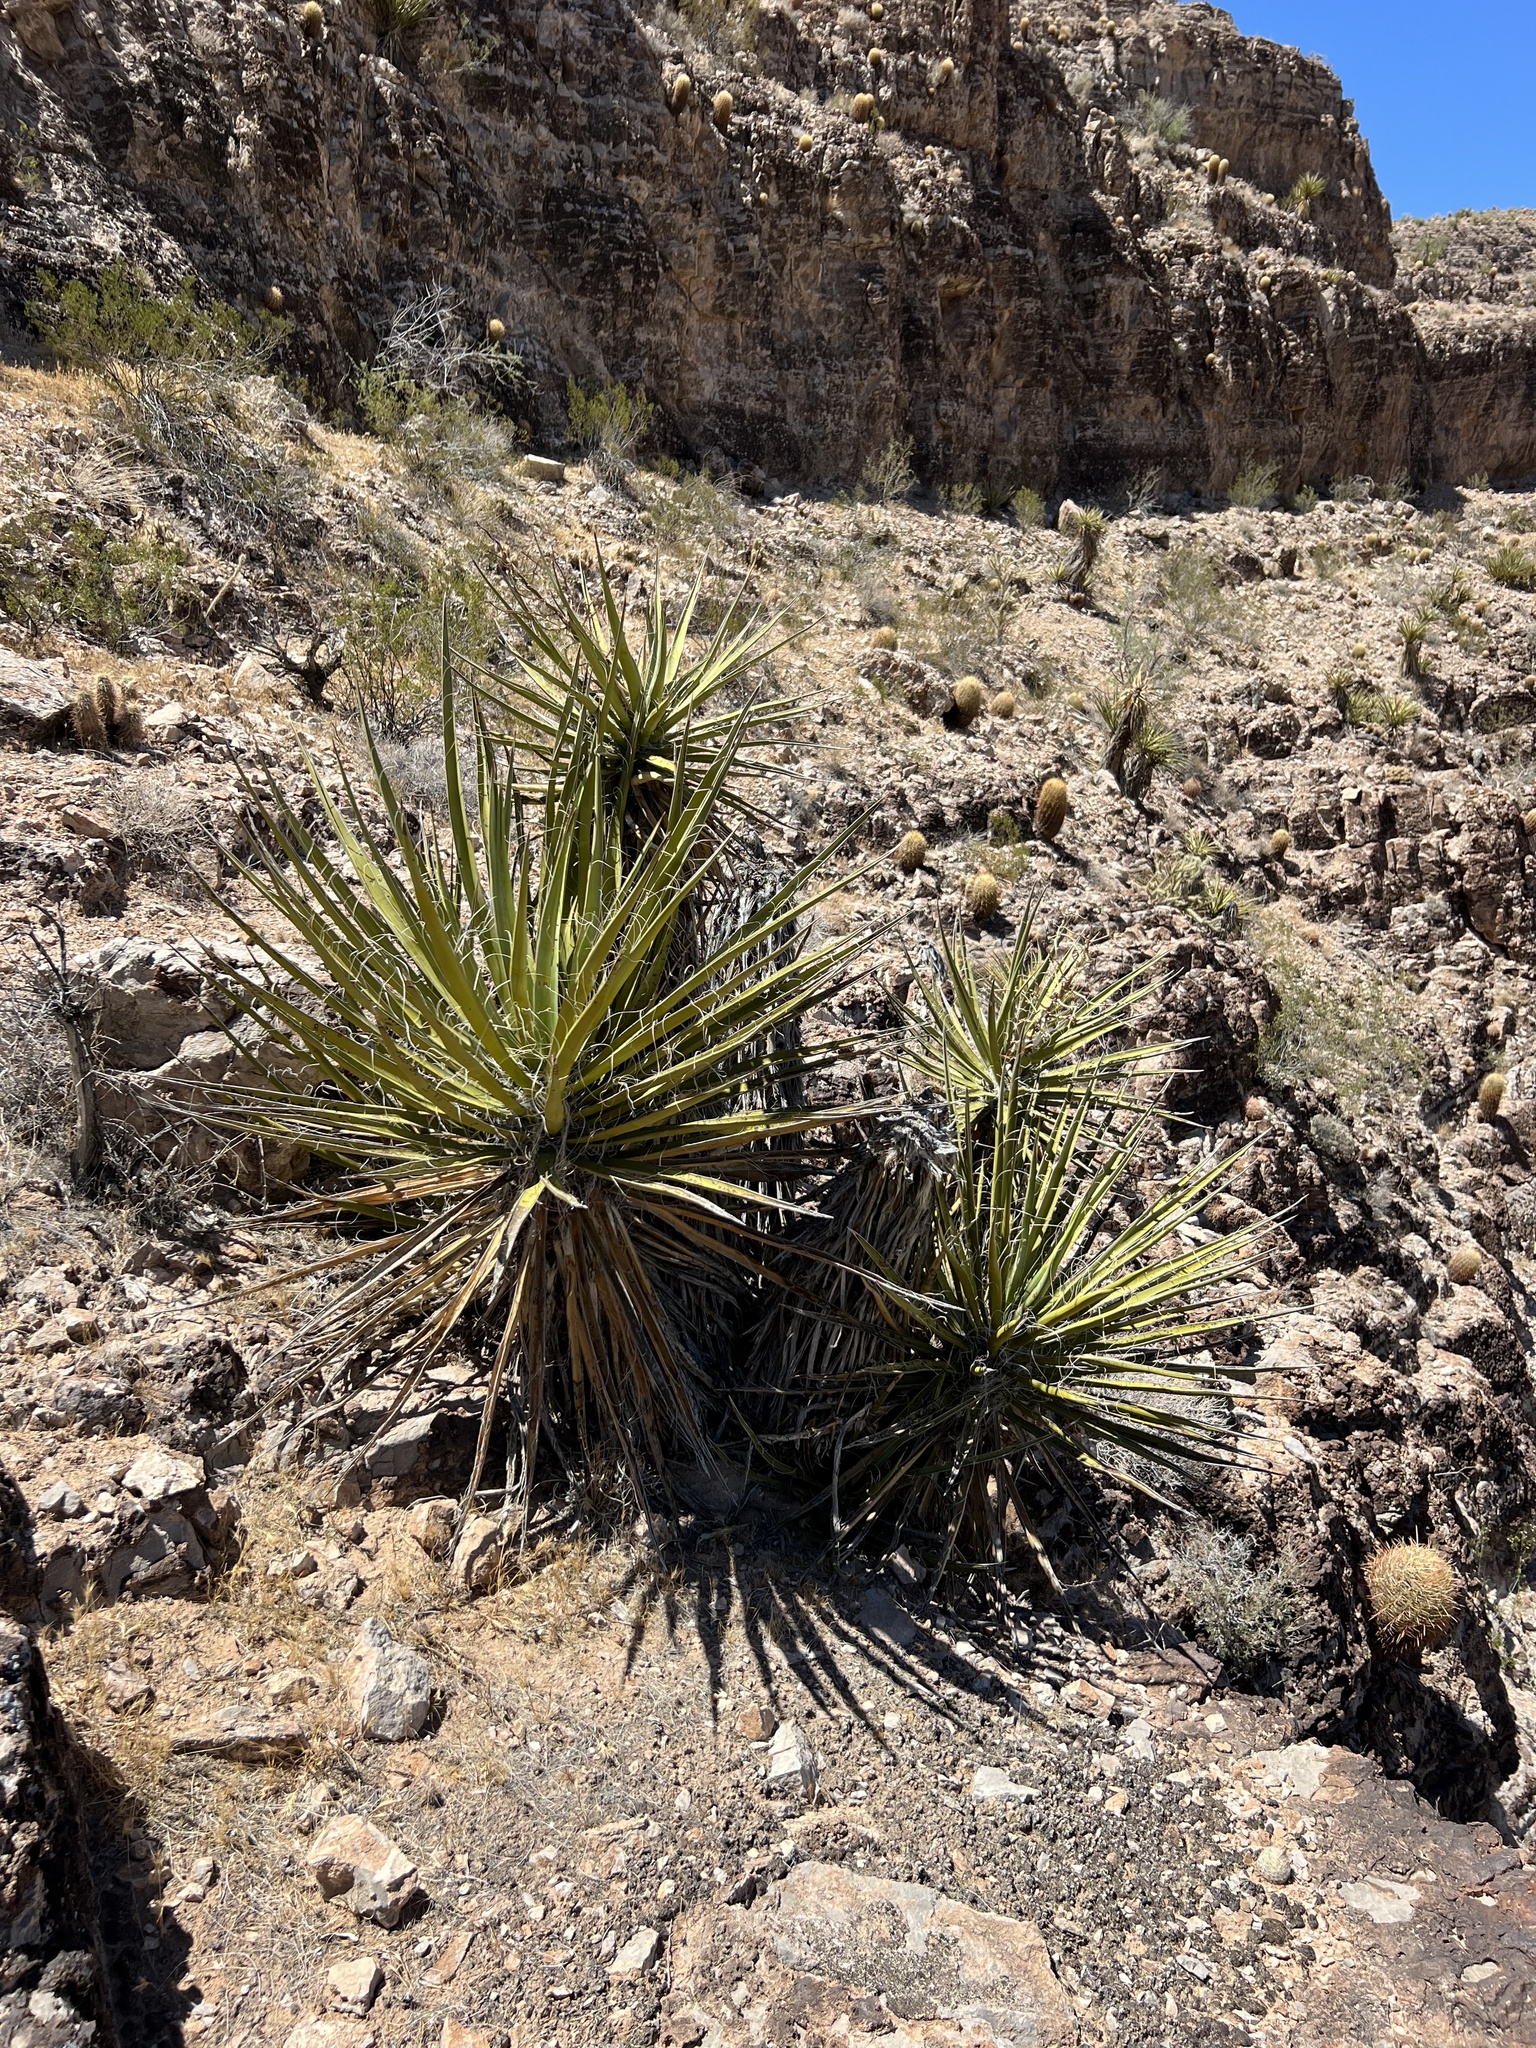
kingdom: Plantae
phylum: Tracheophyta
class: Liliopsida
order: Asparagales
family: Asparagaceae
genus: Yucca
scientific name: Yucca schidigera
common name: Mojave yucca
